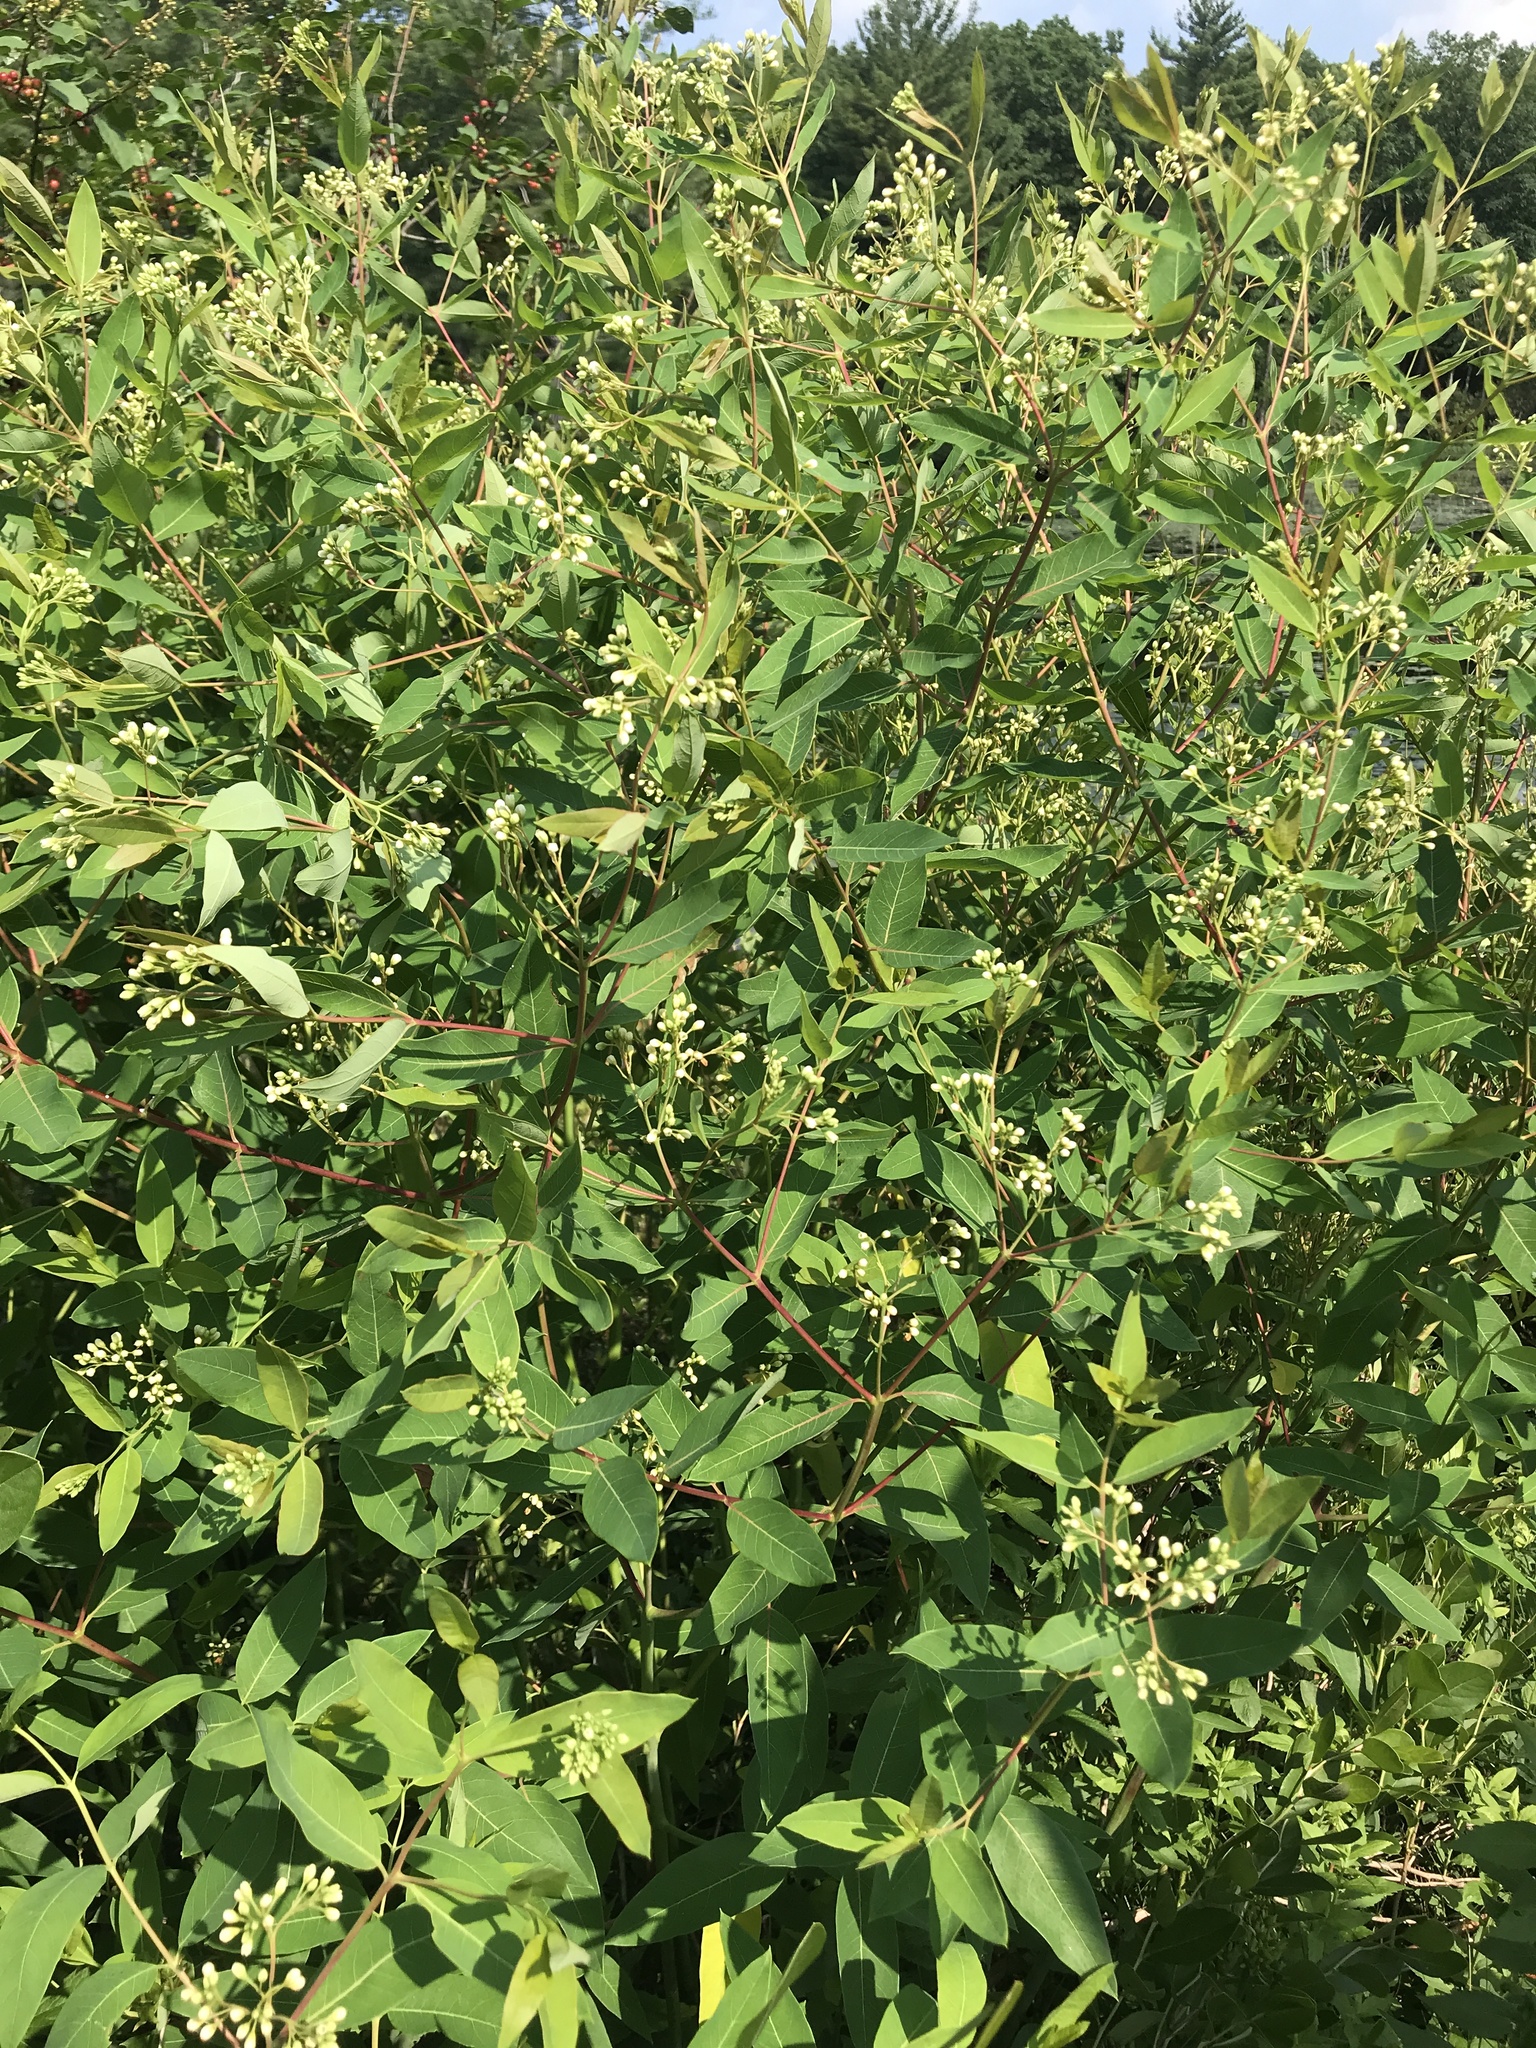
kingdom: Plantae
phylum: Tracheophyta
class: Magnoliopsida
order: Gentianales
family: Apocynaceae
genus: Apocynum
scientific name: Apocynum cannabinum
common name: Hemp dogbane
